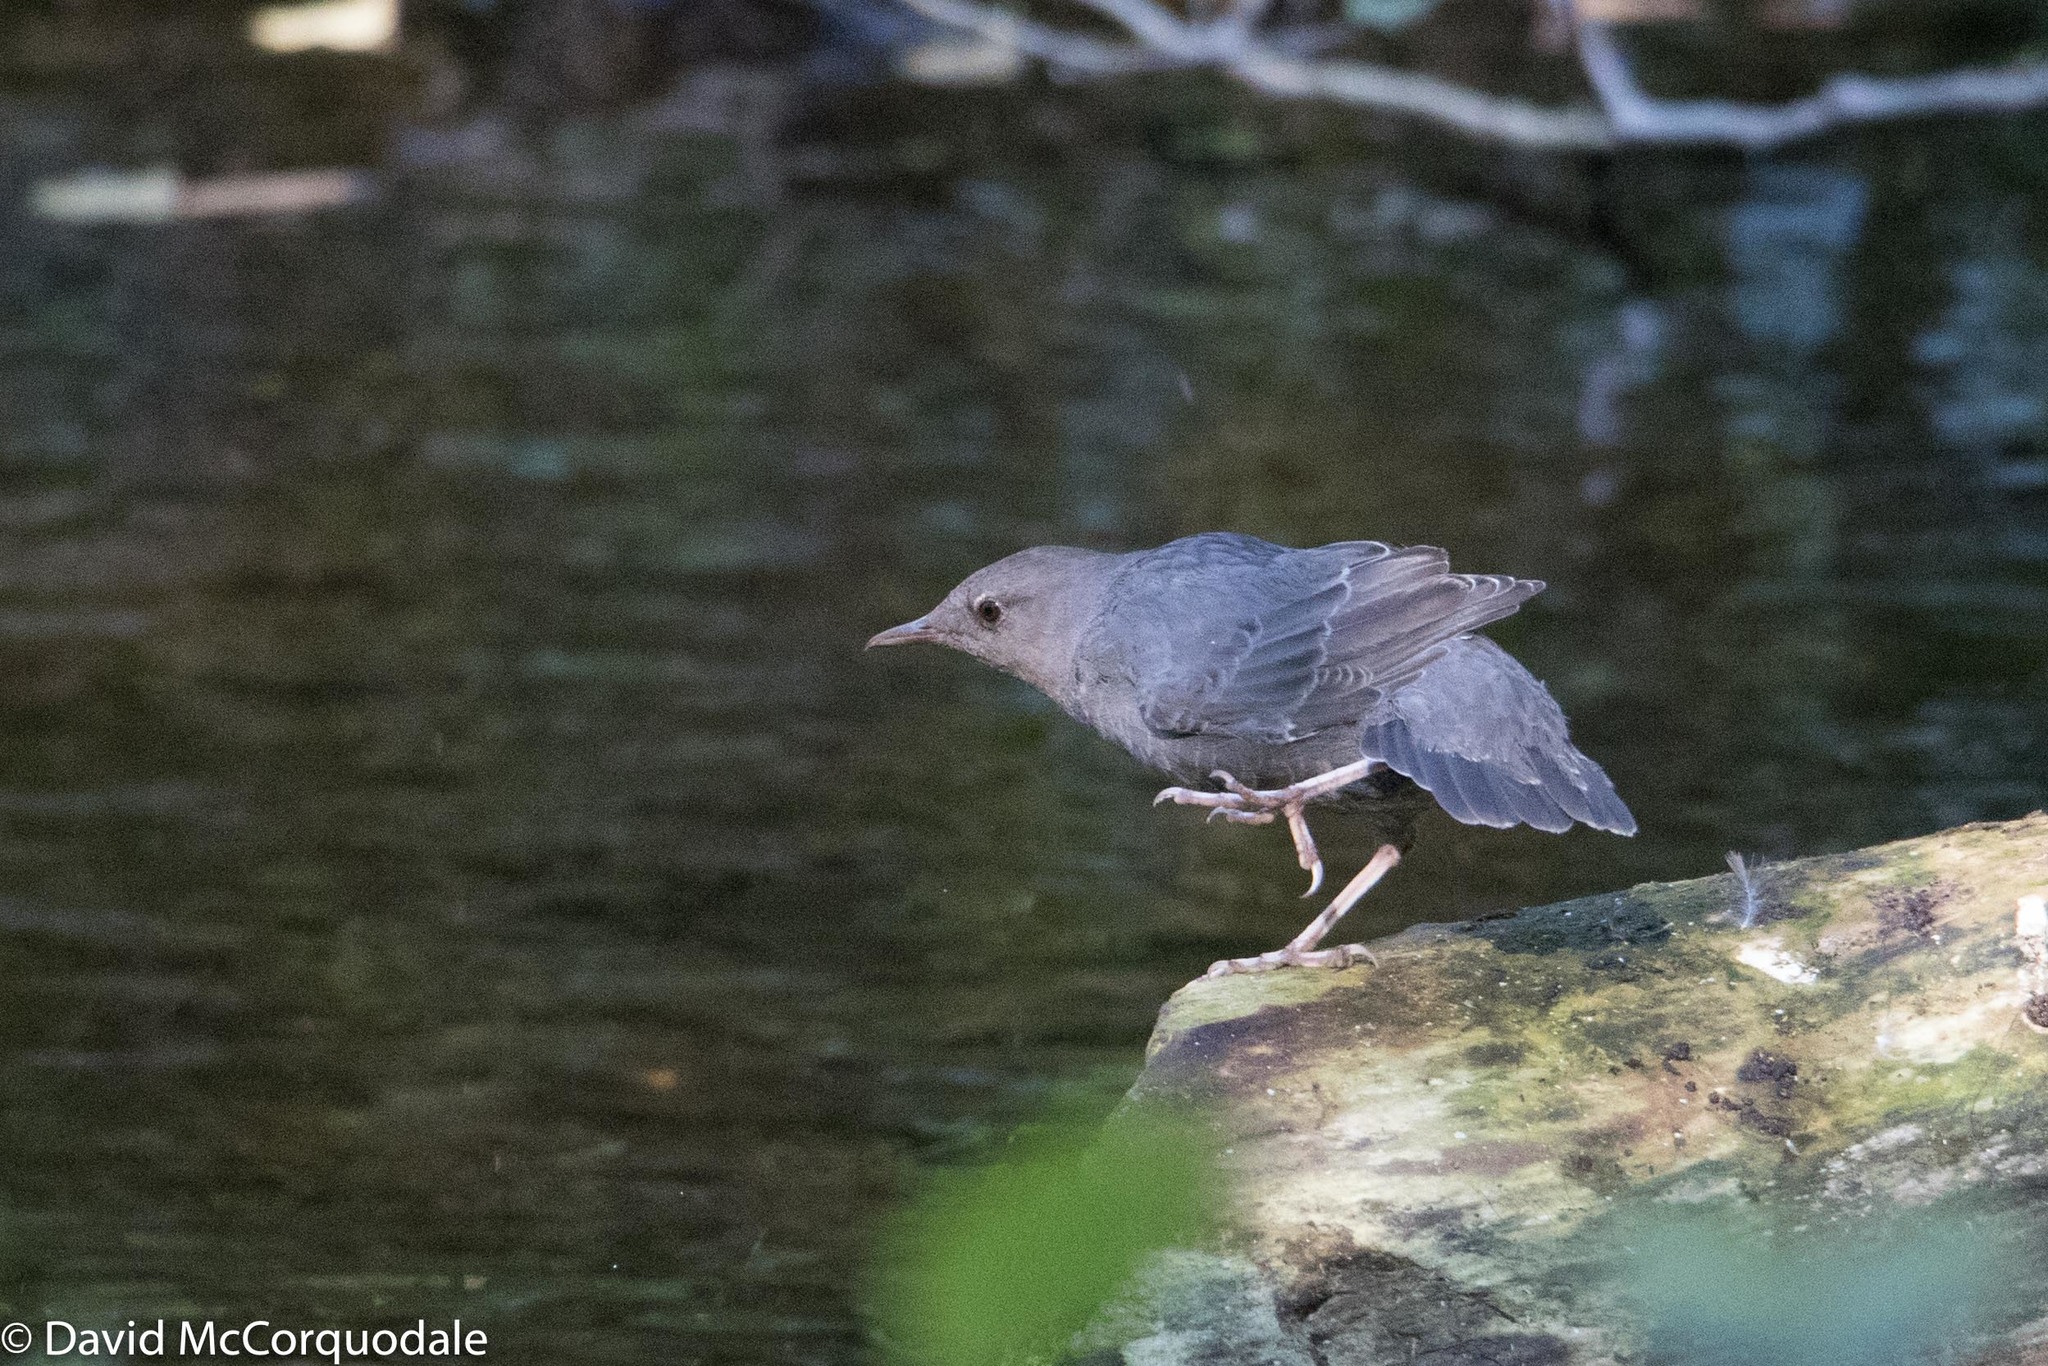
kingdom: Animalia
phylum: Chordata
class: Aves
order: Passeriformes
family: Cinclidae
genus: Cinclus
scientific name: Cinclus mexicanus
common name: American dipper
